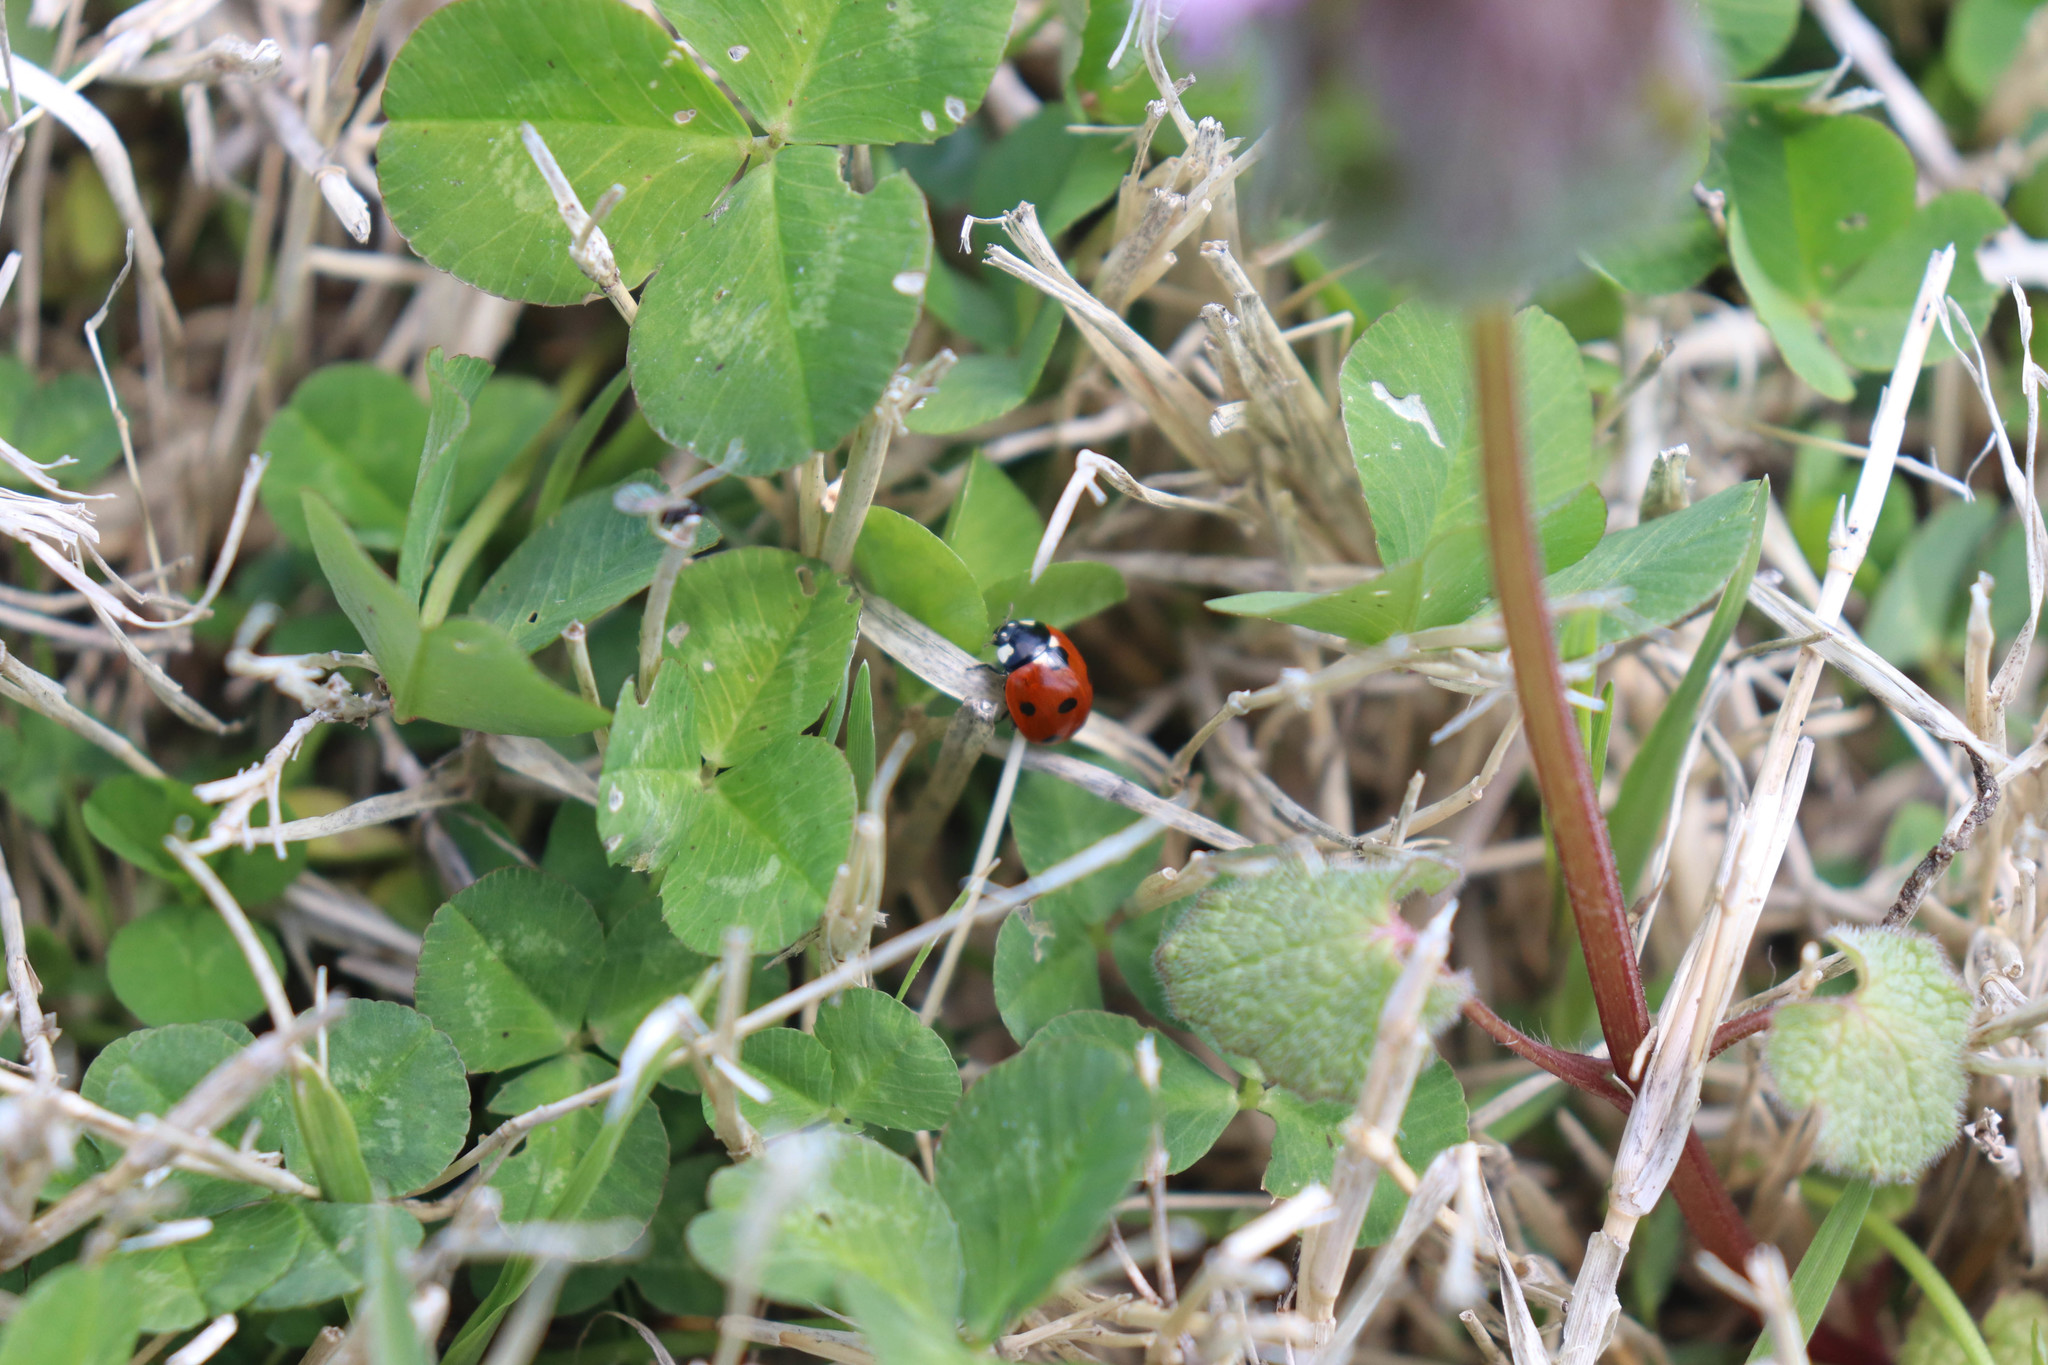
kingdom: Animalia
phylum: Arthropoda
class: Insecta
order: Coleoptera
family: Coccinellidae
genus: Coccinella
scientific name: Coccinella septempunctata
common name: Sevenspotted lady beetle
